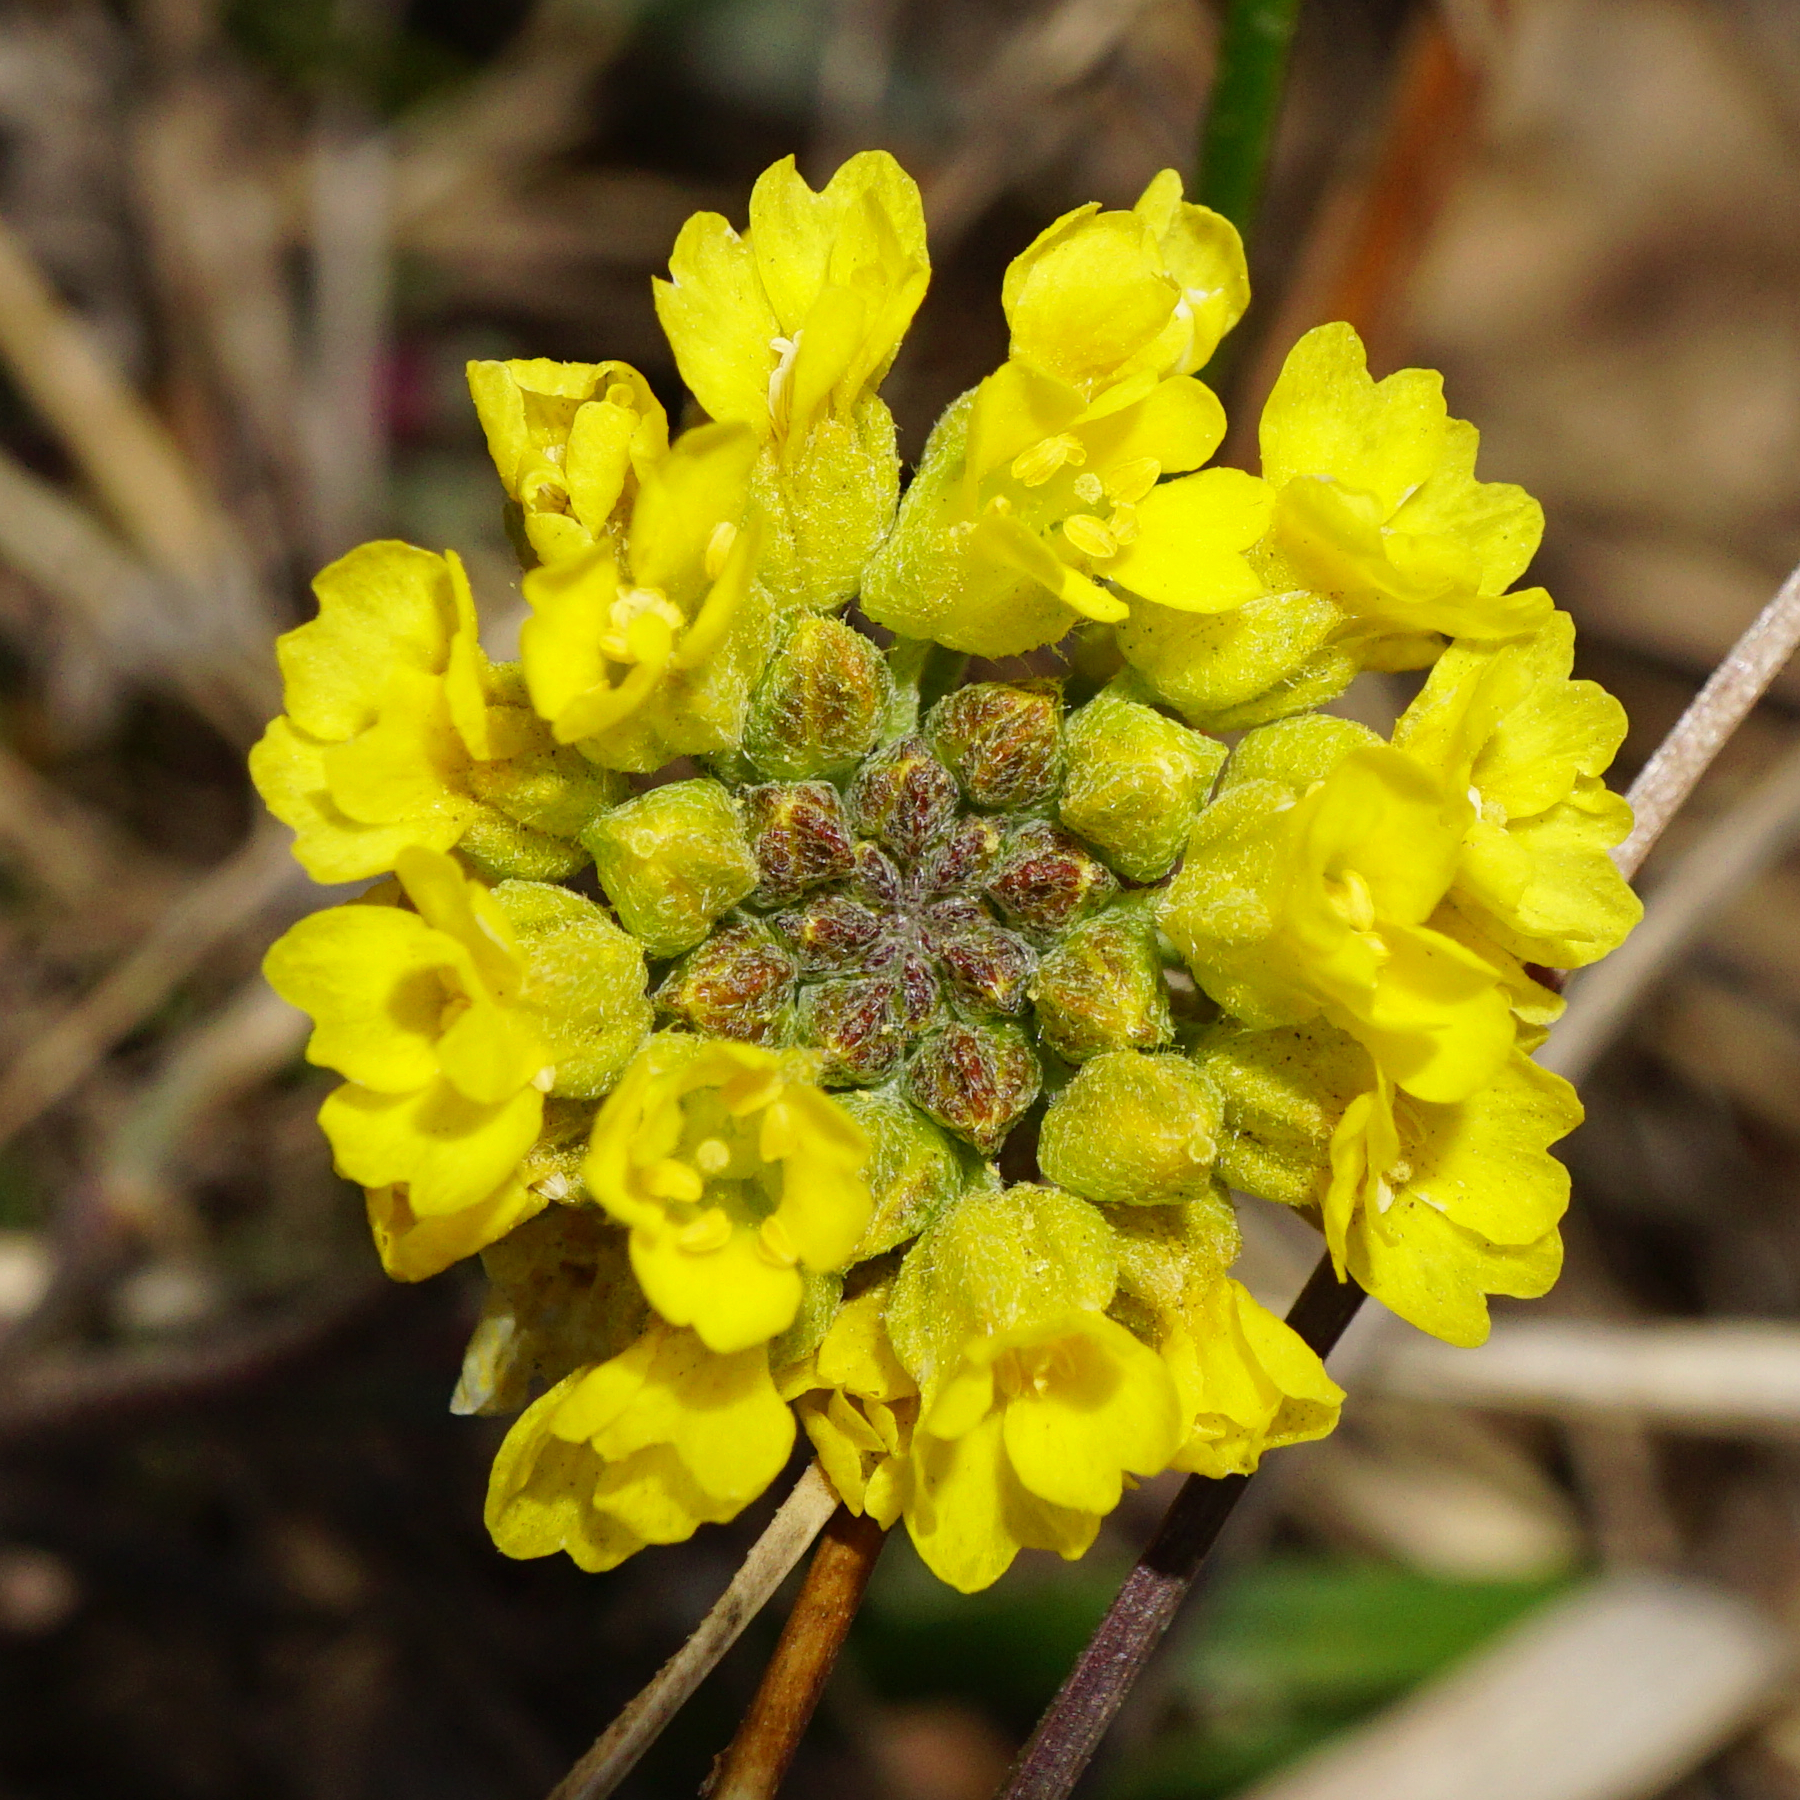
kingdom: Plantae
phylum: Tracheophyta
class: Magnoliopsida
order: Brassicales
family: Brassicaceae
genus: Alyssum
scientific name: Alyssum gmelinii
